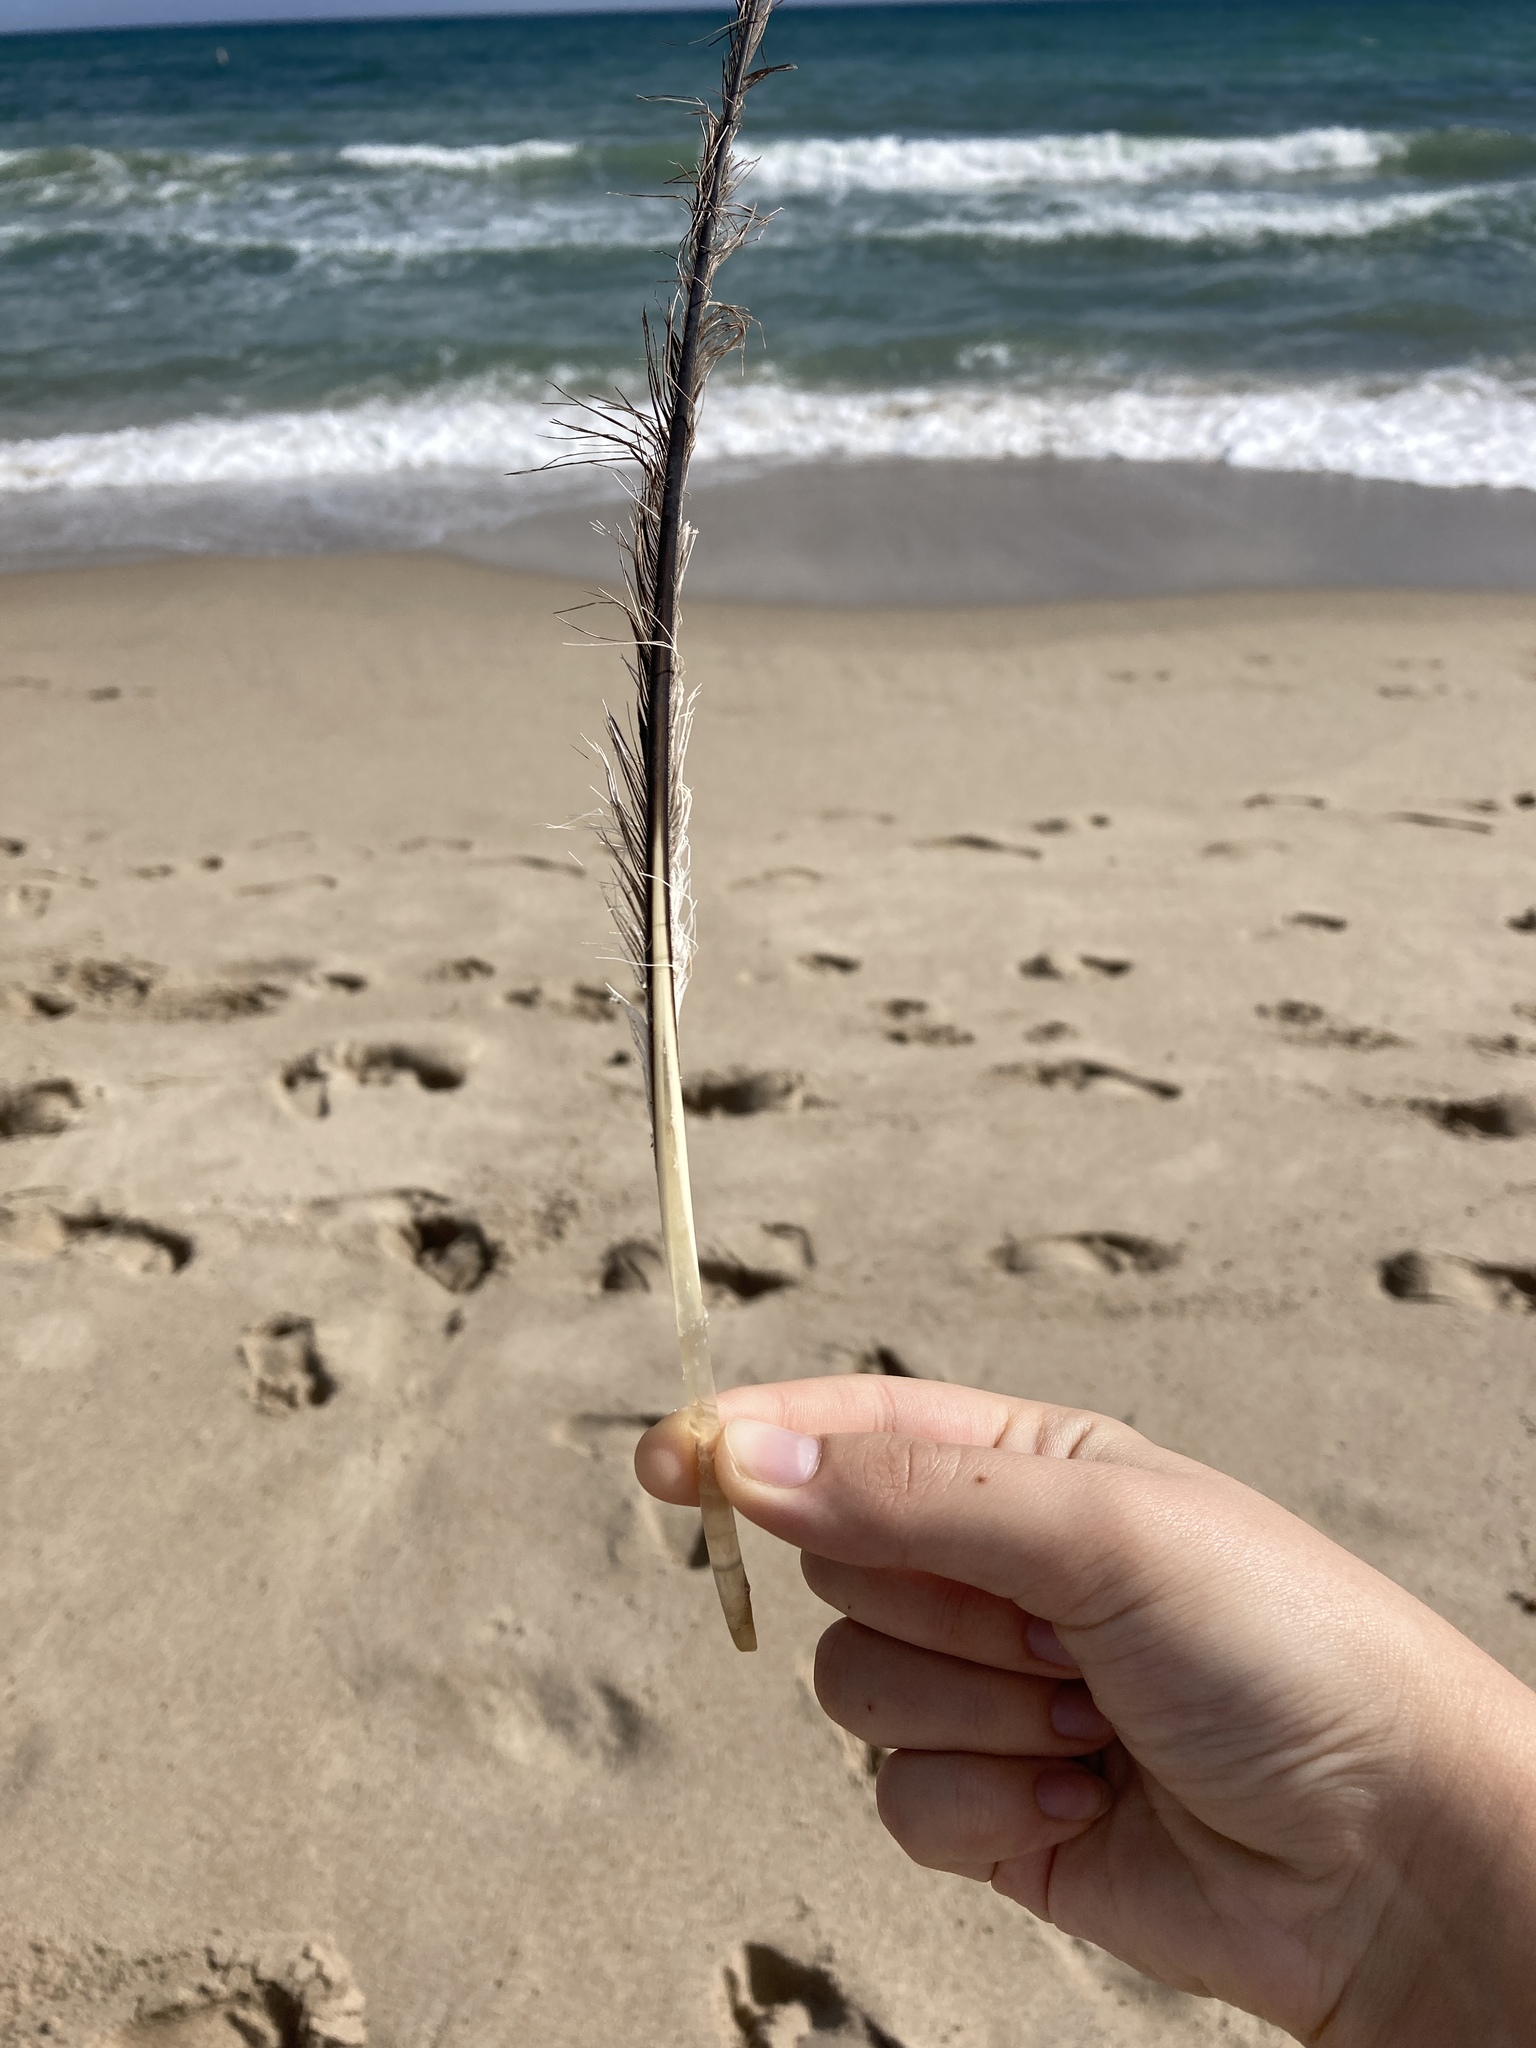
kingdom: Animalia
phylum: Chordata
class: Aves
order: Pelecaniformes
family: Pelecanidae
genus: Pelecanus
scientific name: Pelecanus occidentalis
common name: Brown pelican
